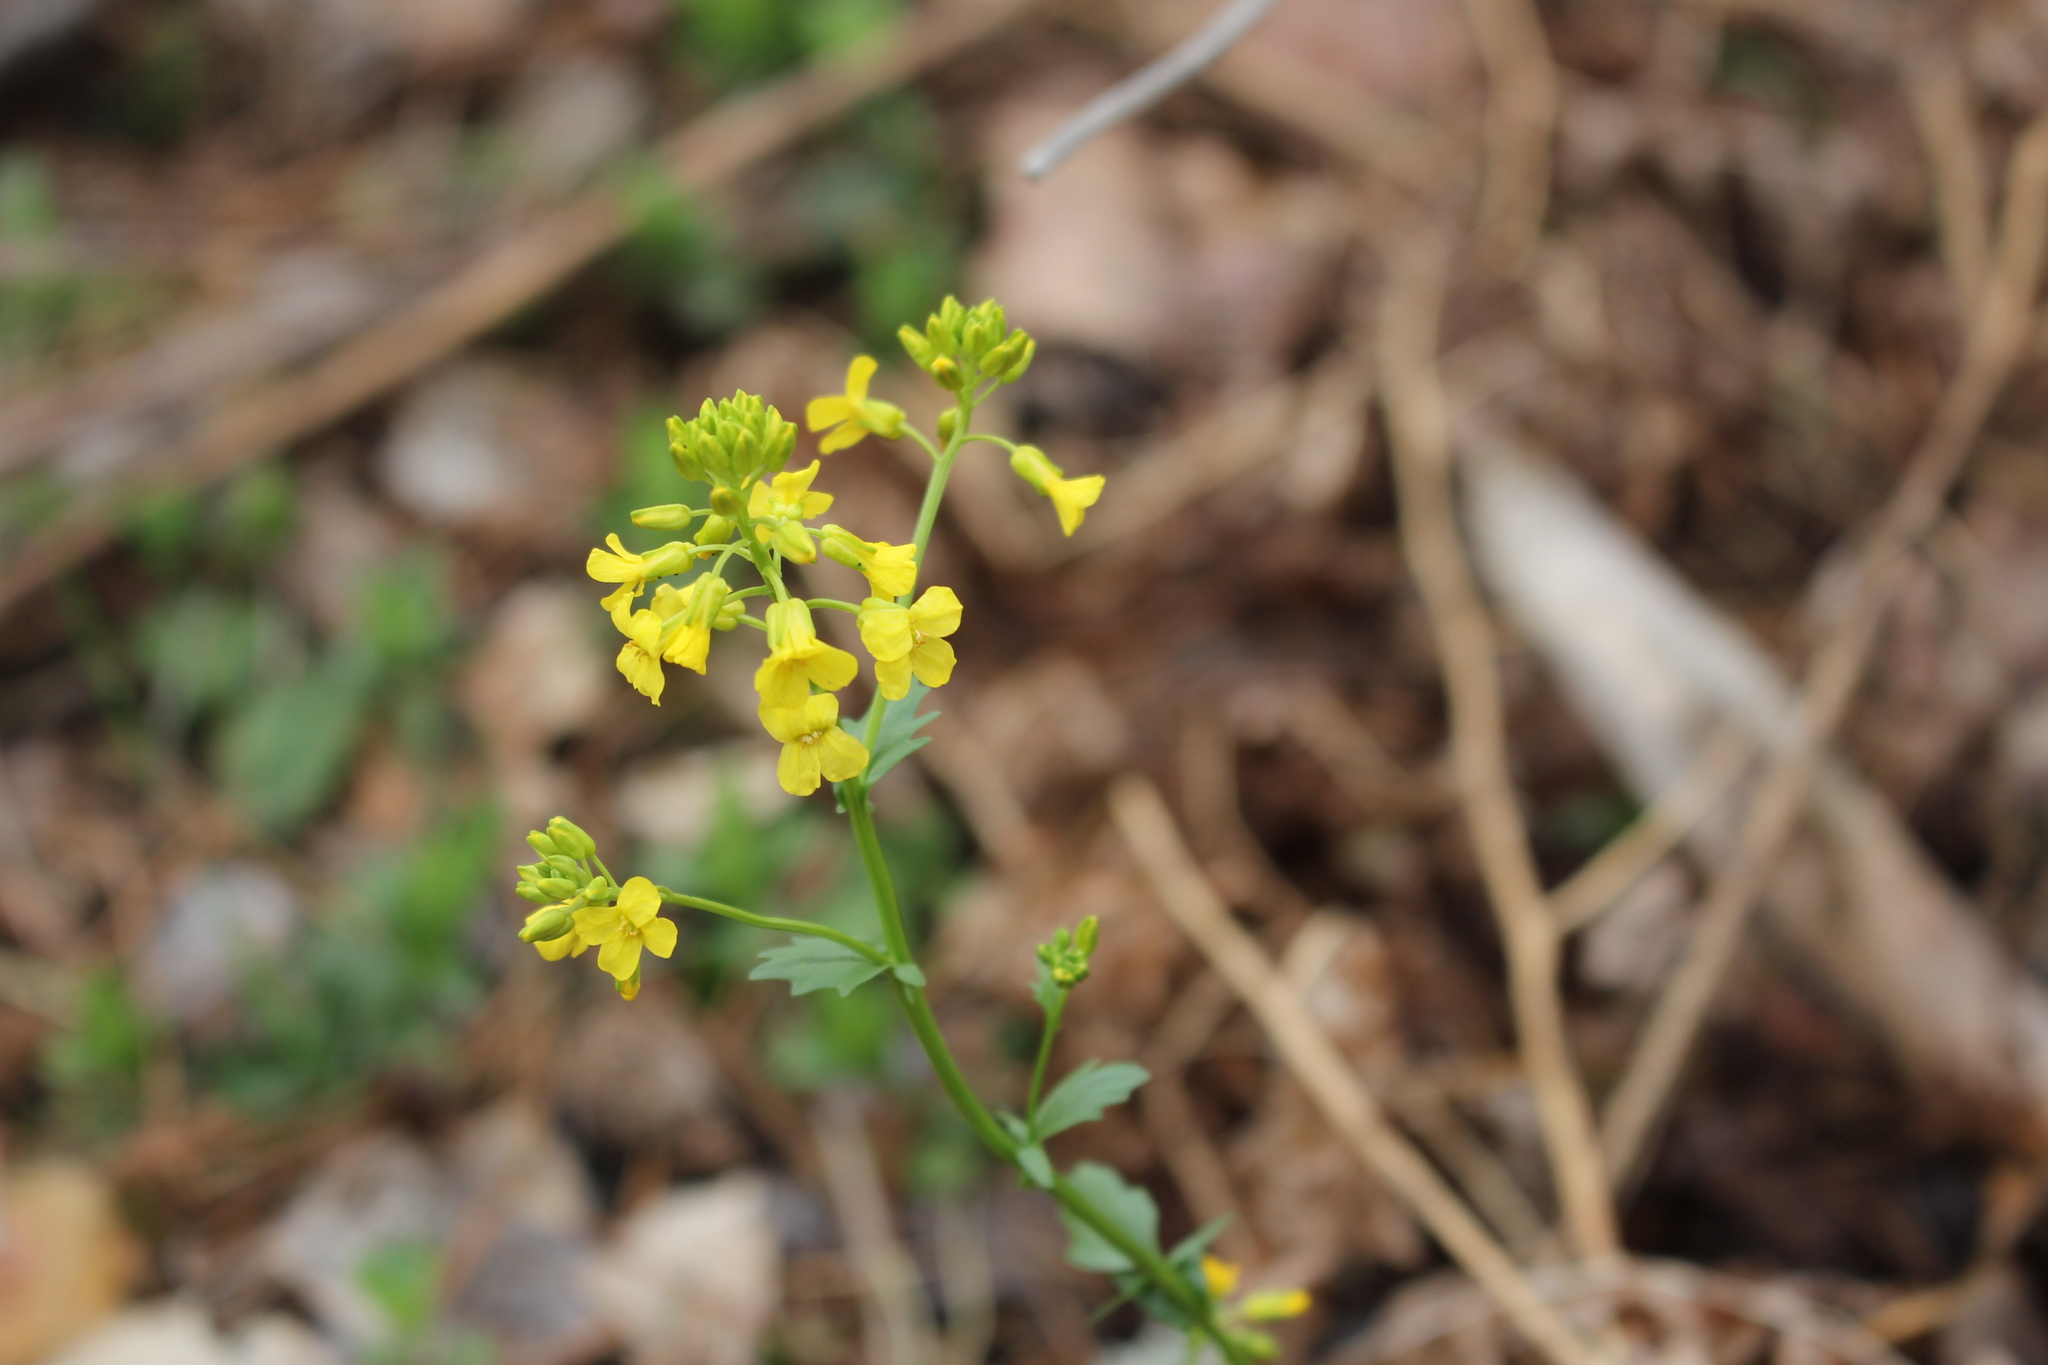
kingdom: Plantae
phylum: Tracheophyta
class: Magnoliopsida
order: Brassicales
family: Brassicaceae
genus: Barbarea
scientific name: Barbarea vulgaris
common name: Cressy-greens
